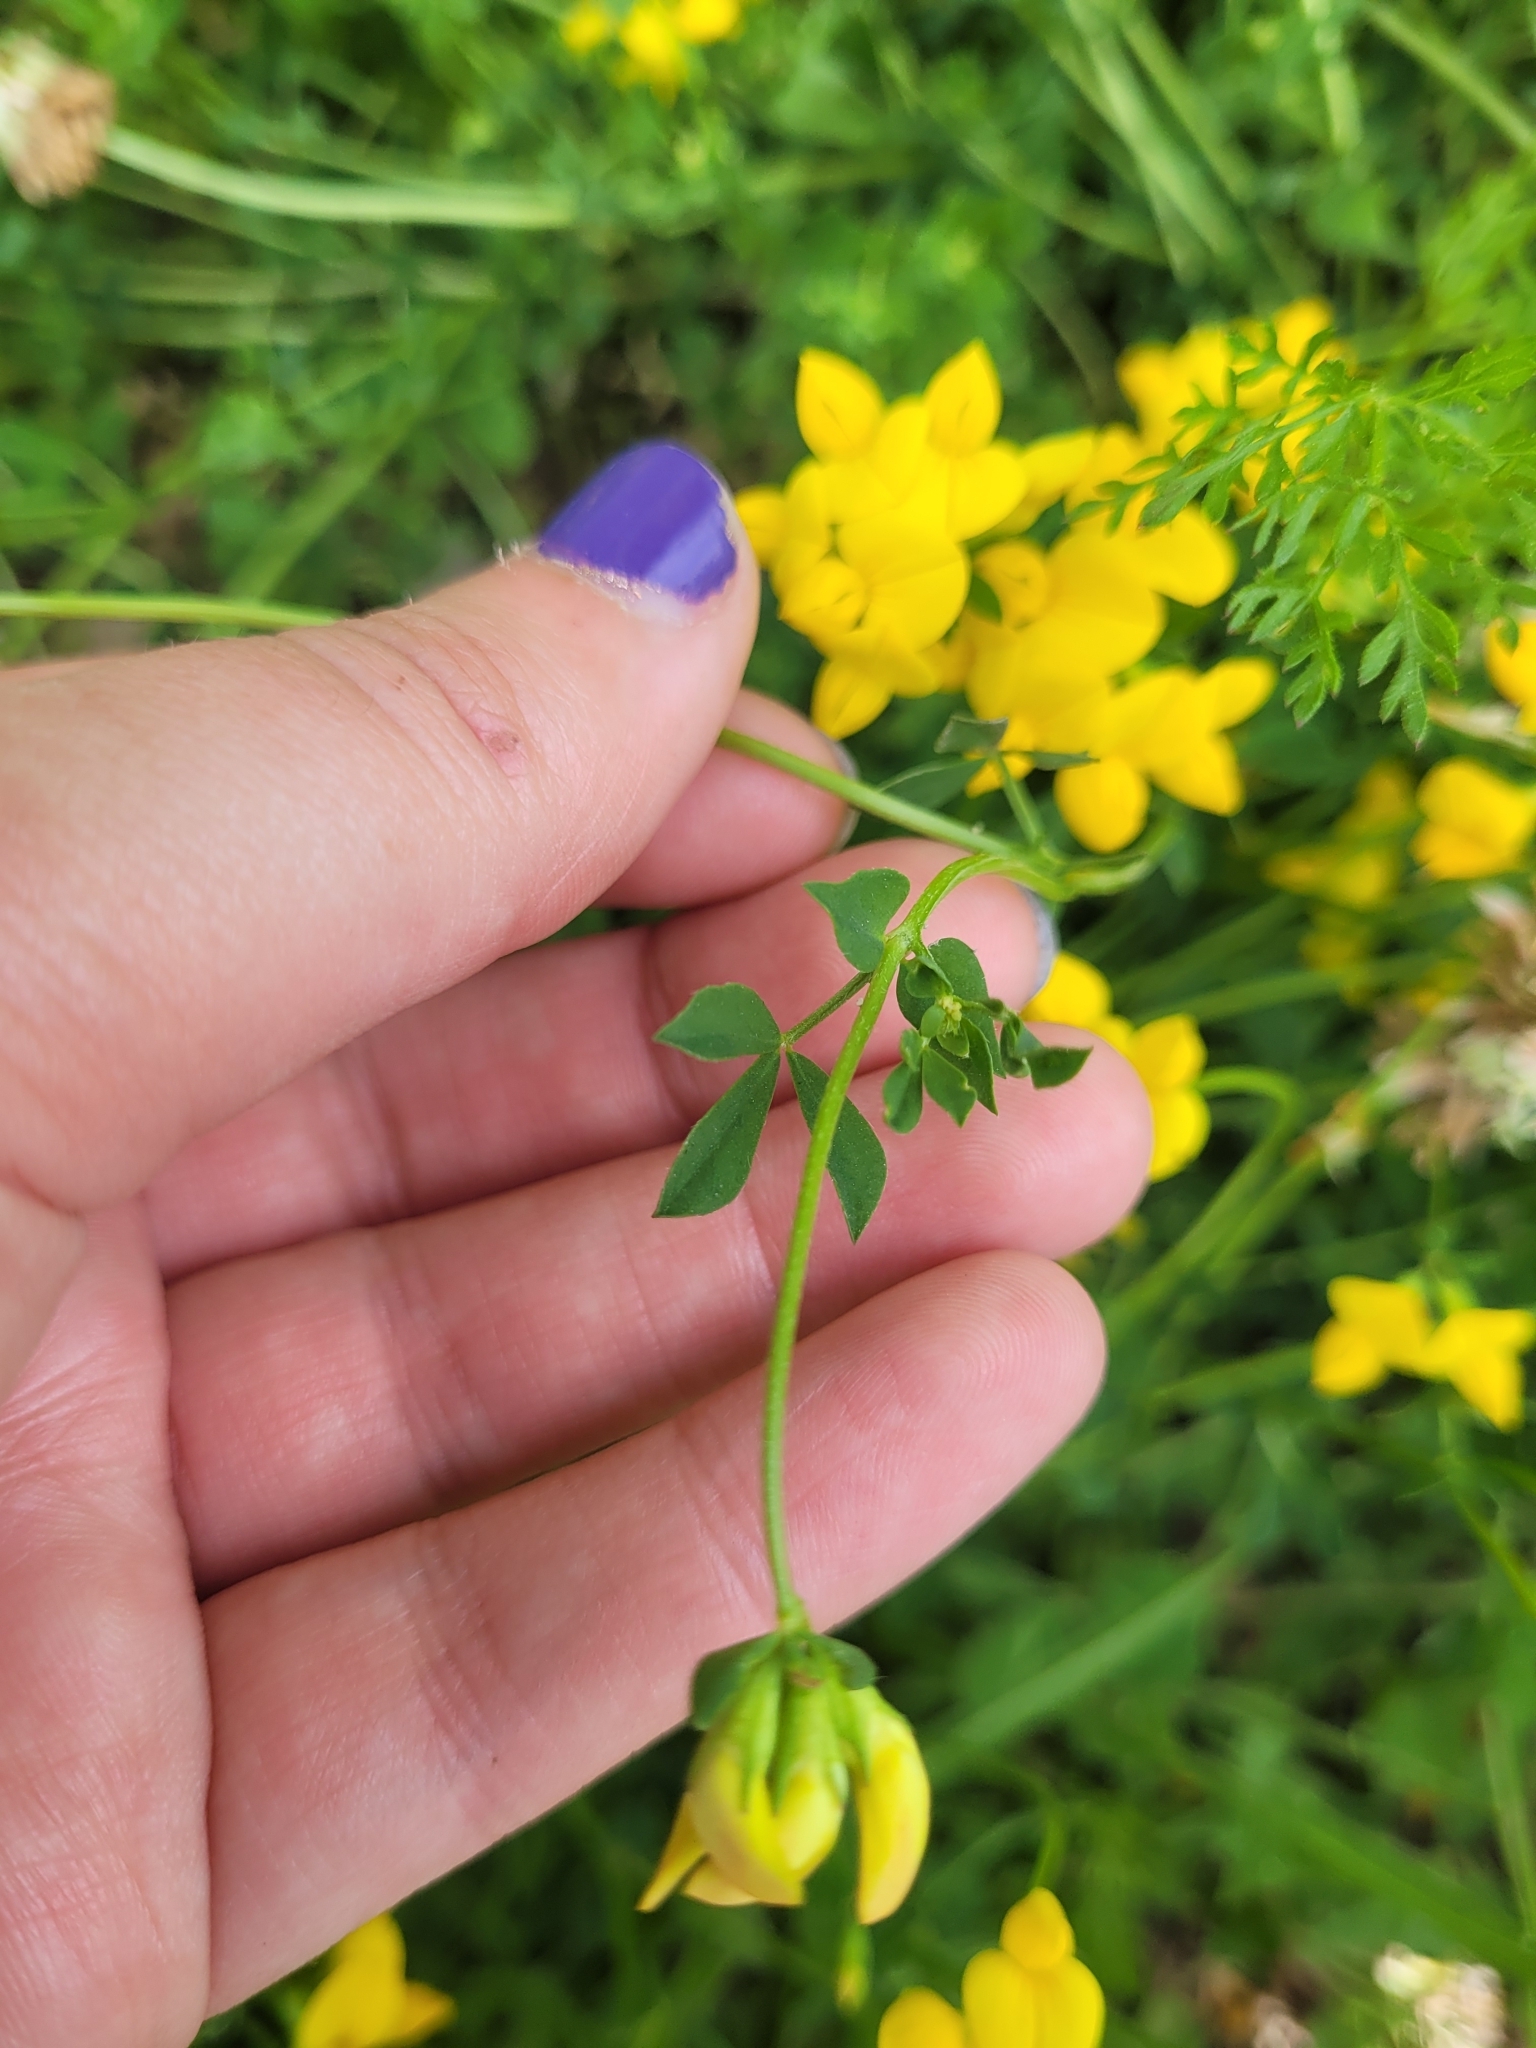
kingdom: Plantae
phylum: Tracheophyta
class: Magnoliopsida
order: Fabales
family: Fabaceae
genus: Lotus
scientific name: Lotus corniculatus
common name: Common bird's-foot-trefoil
